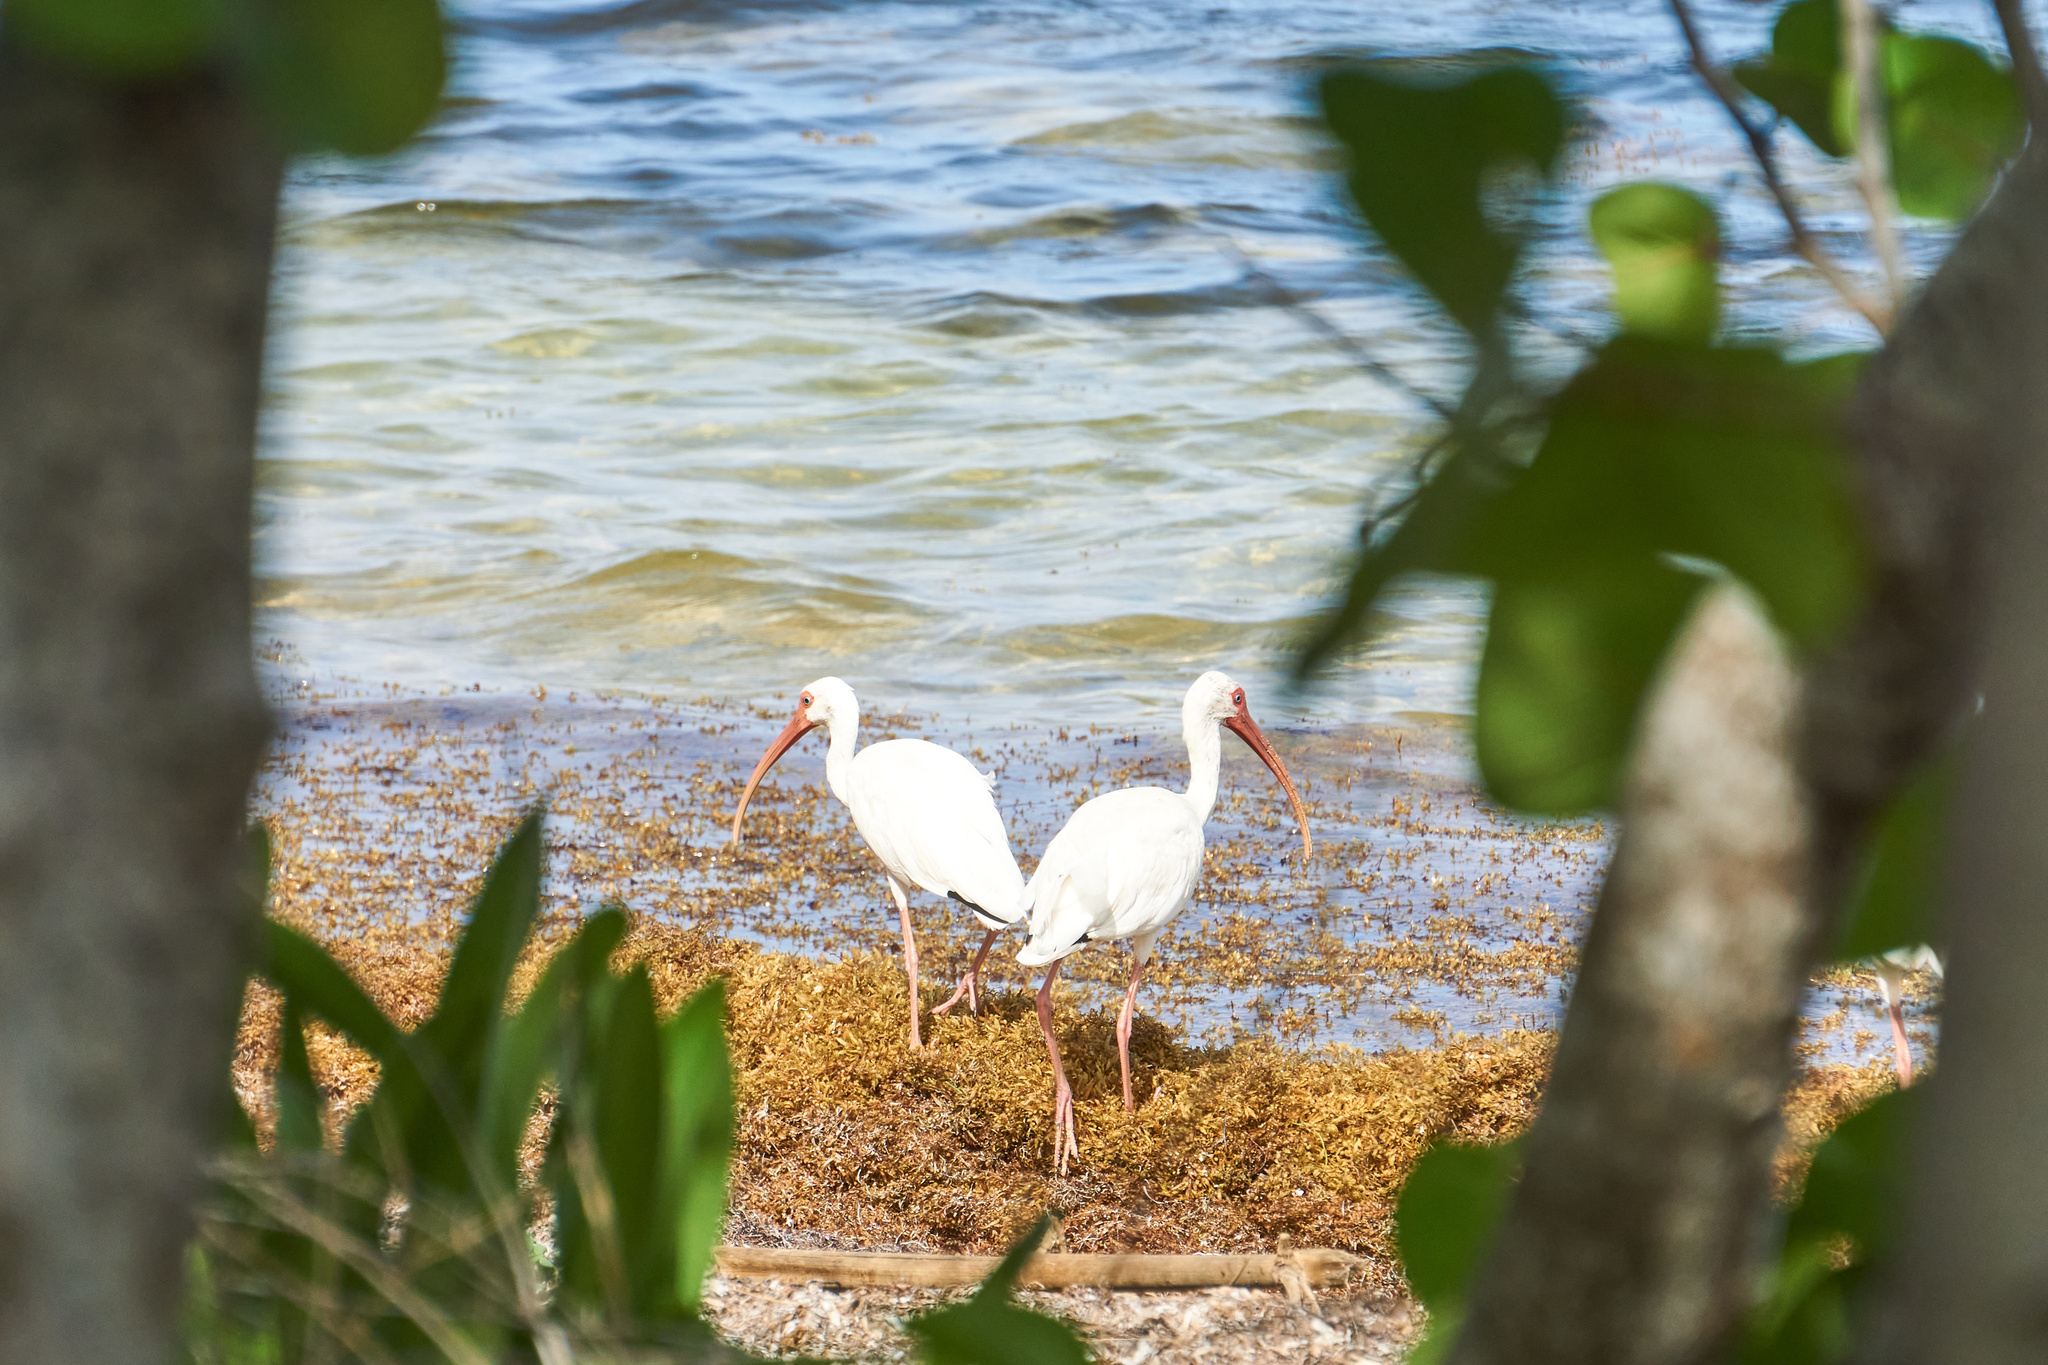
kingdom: Animalia
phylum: Chordata
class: Aves
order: Pelecaniformes
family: Threskiornithidae
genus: Eudocimus
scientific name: Eudocimus albus
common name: White ibis
